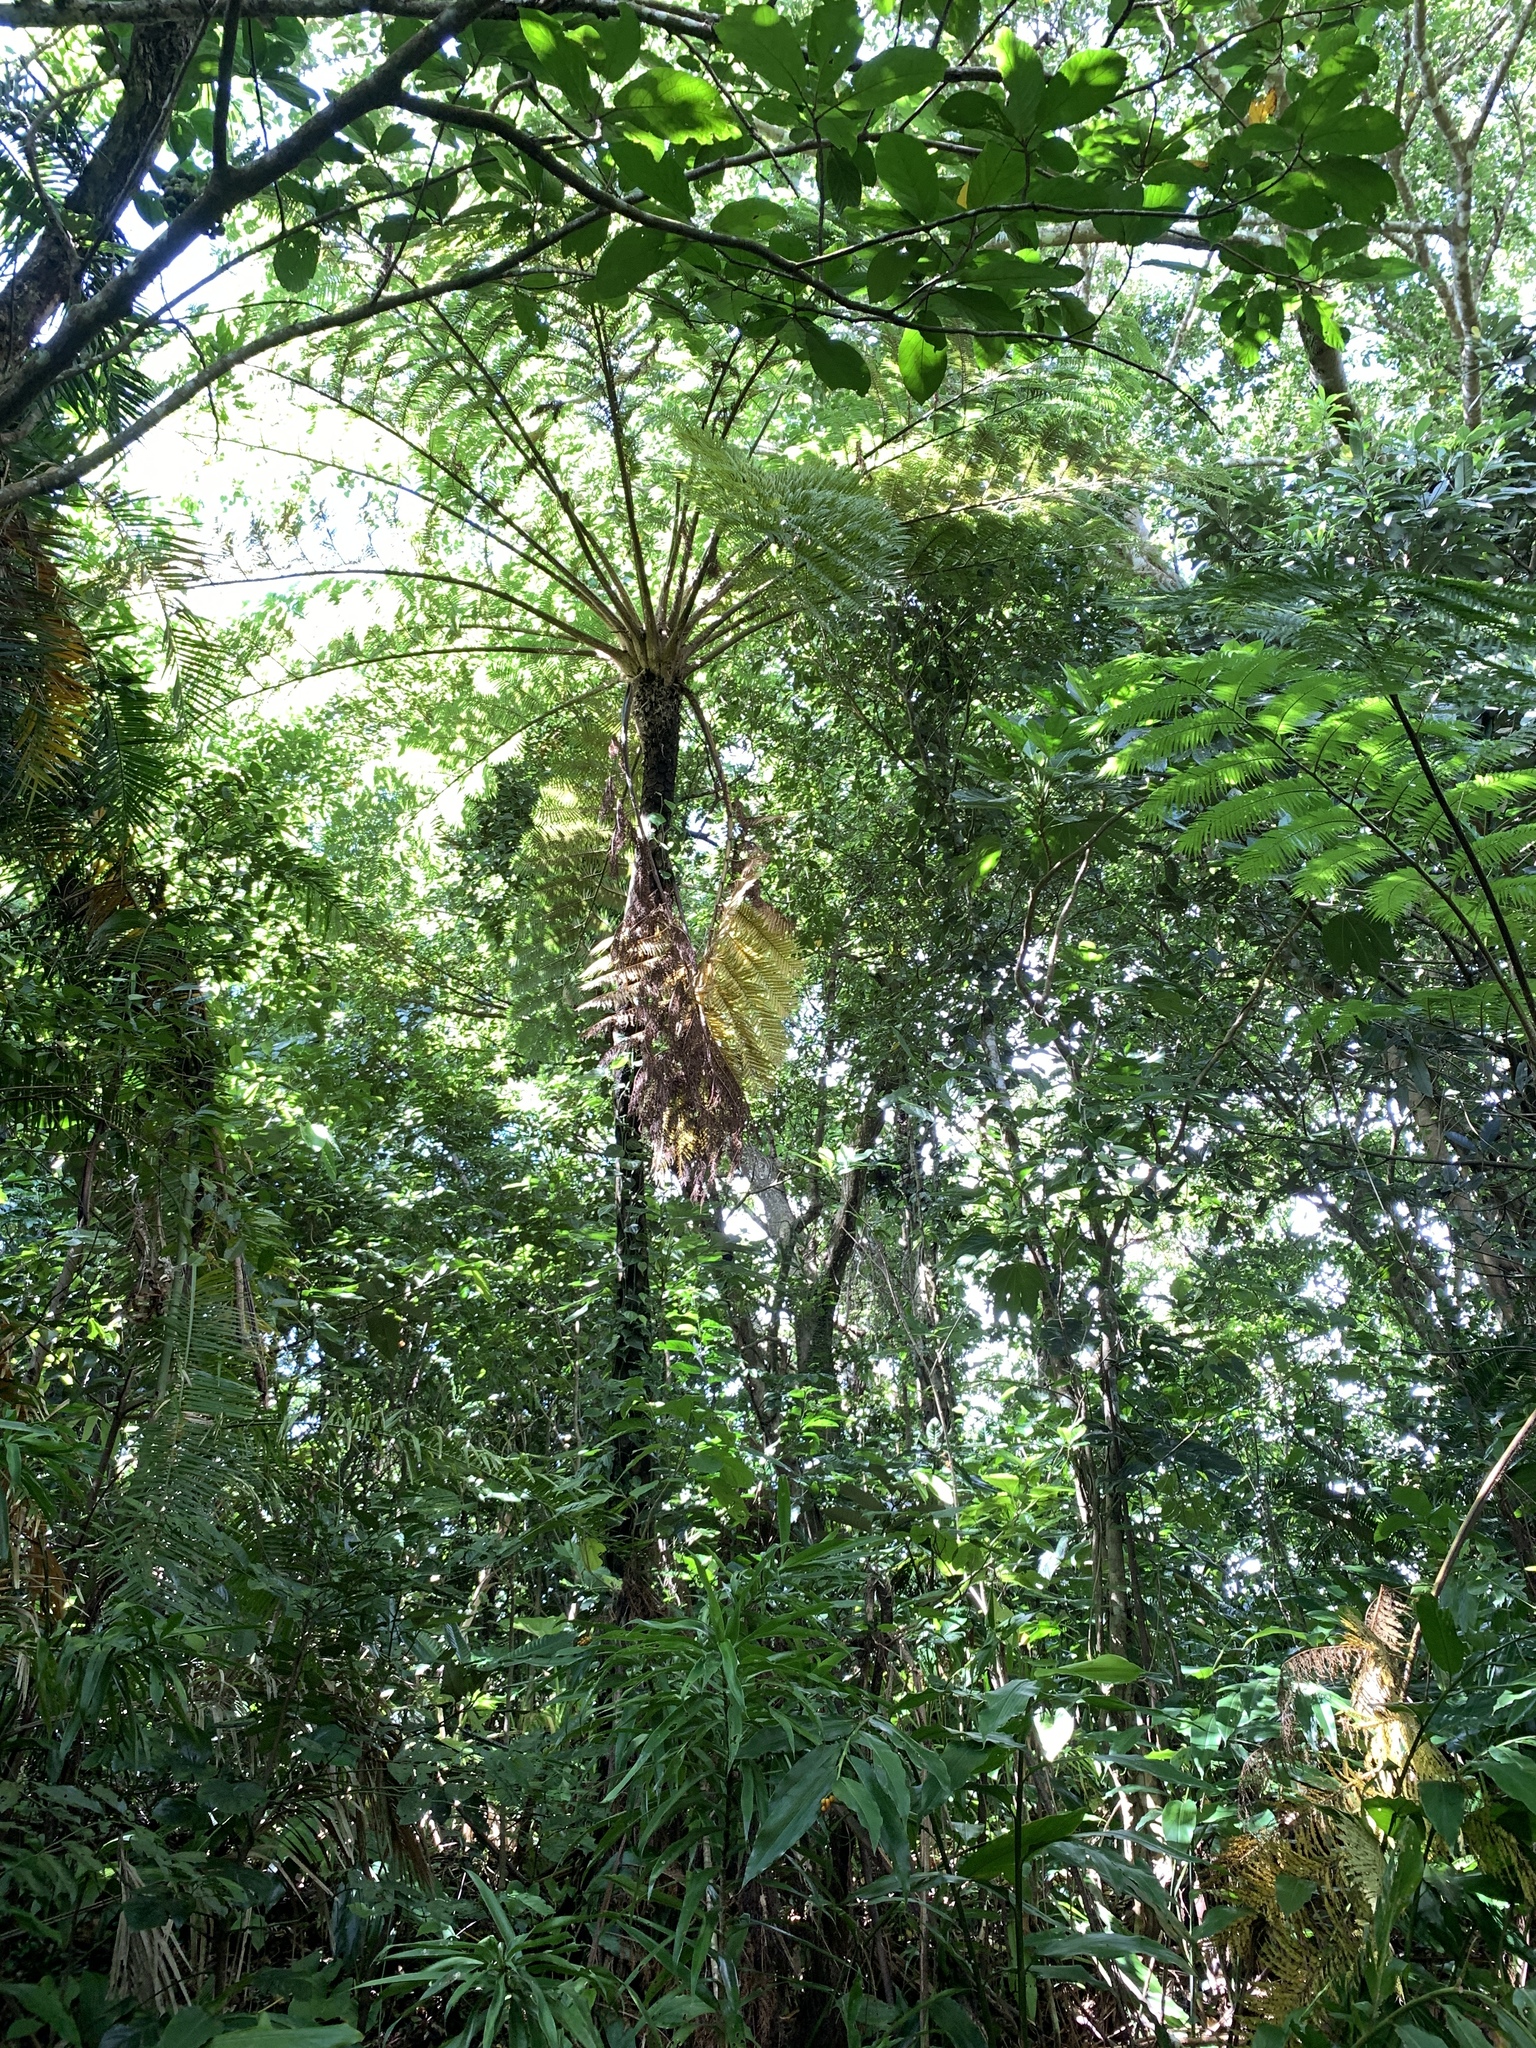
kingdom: Plantae
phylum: Tracheophyta
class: Polypodiopsida
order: Cyatheales
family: Cyatheaceae
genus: Alsophila
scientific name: Alsophila lepifera
